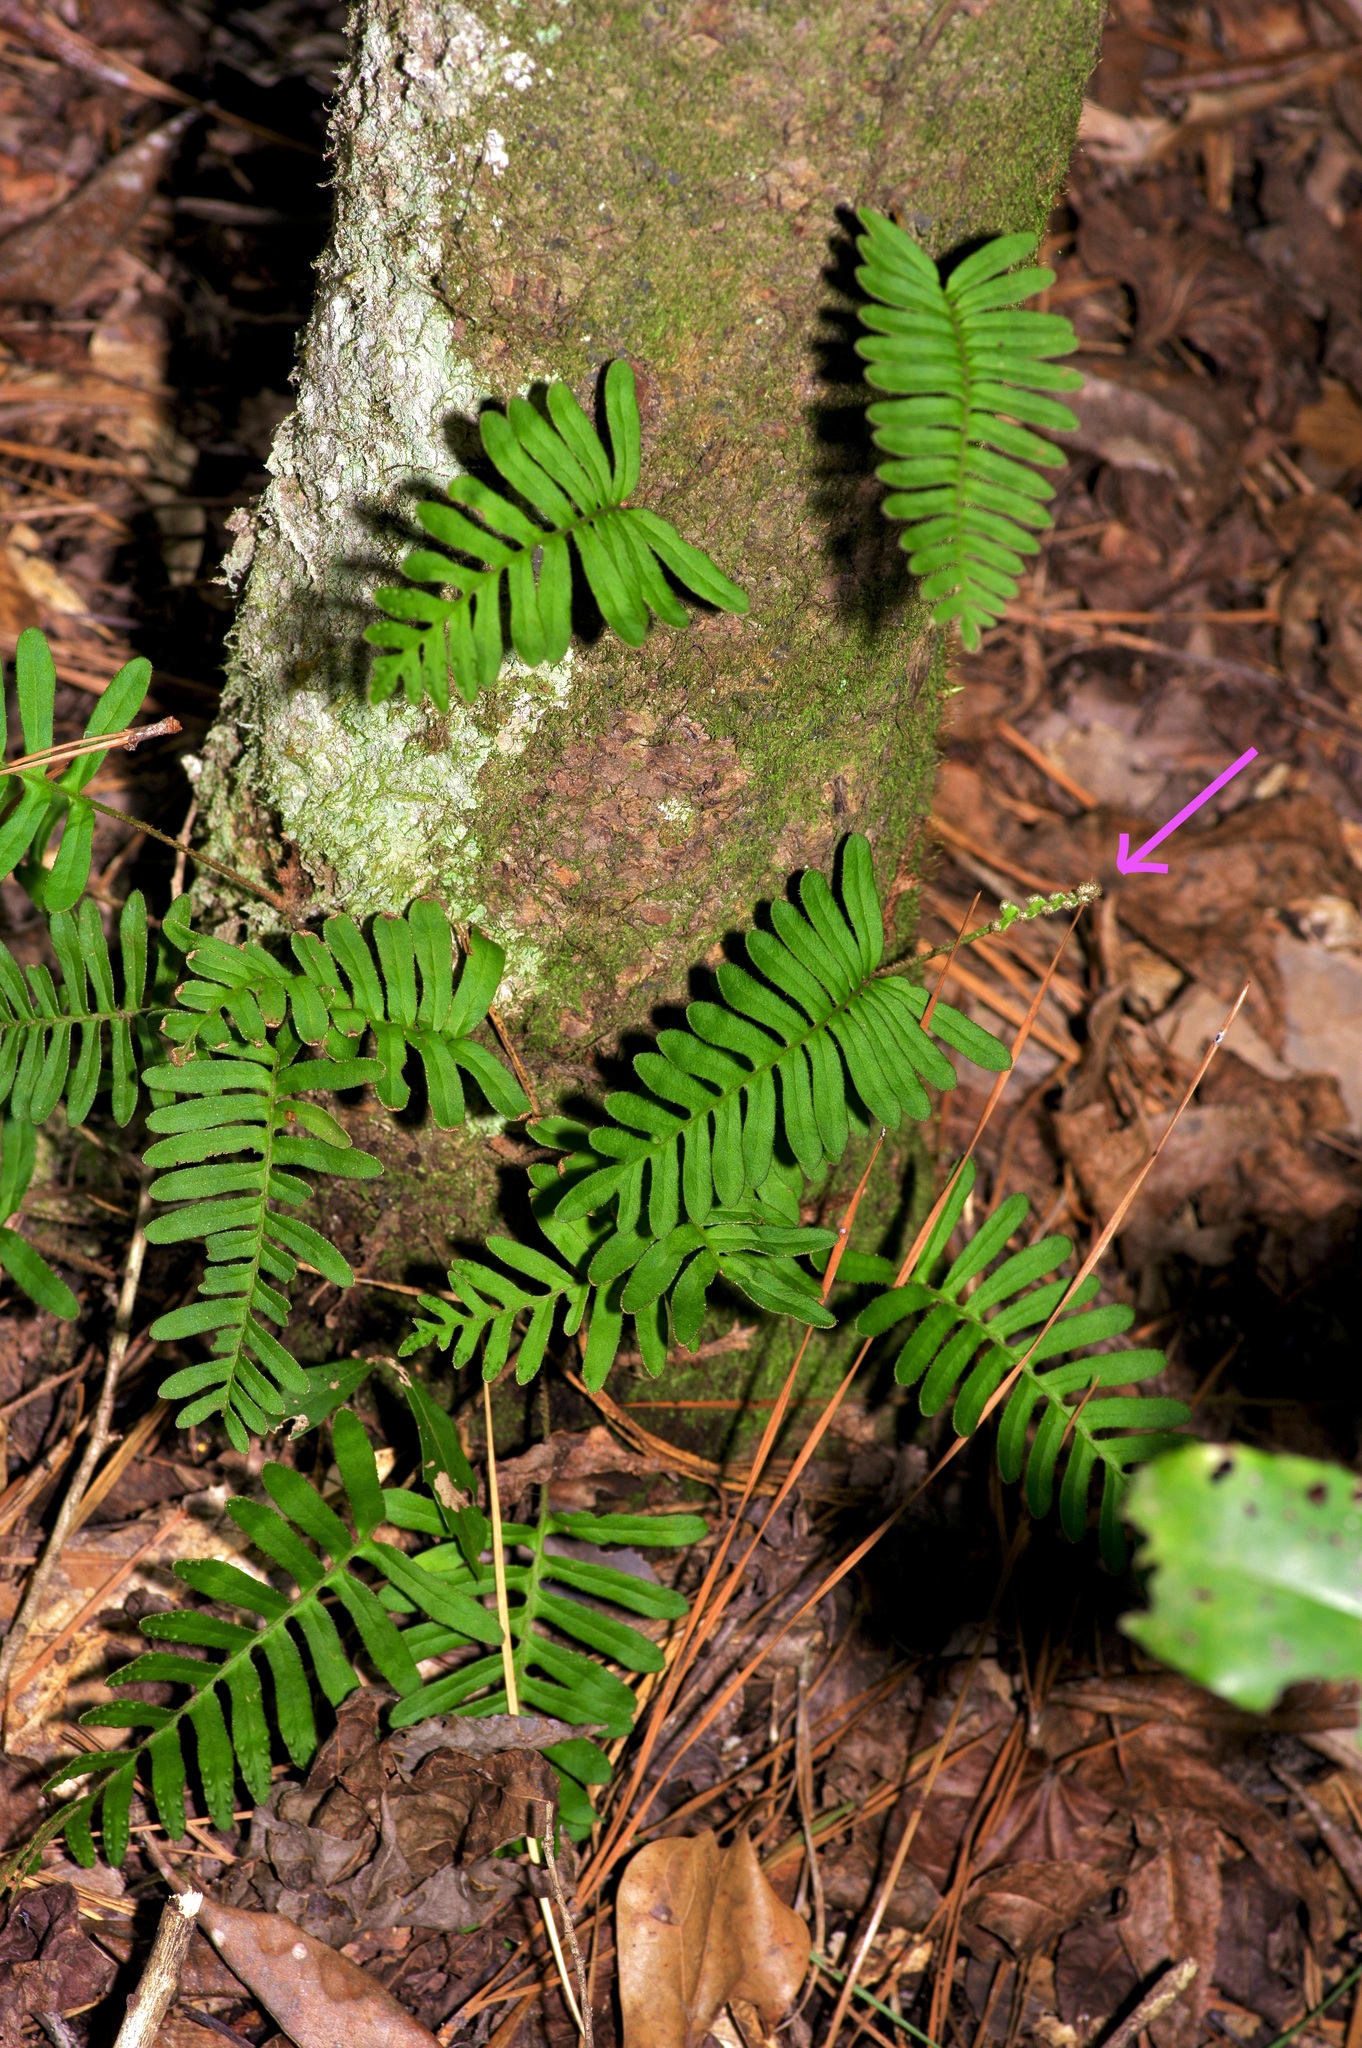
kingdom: Plantae
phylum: Tracheophyta
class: Polypodiopsida
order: Polypodiales
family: Polypodiaceae
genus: Pleopeltis
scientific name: Pleopeltis michauxiana
